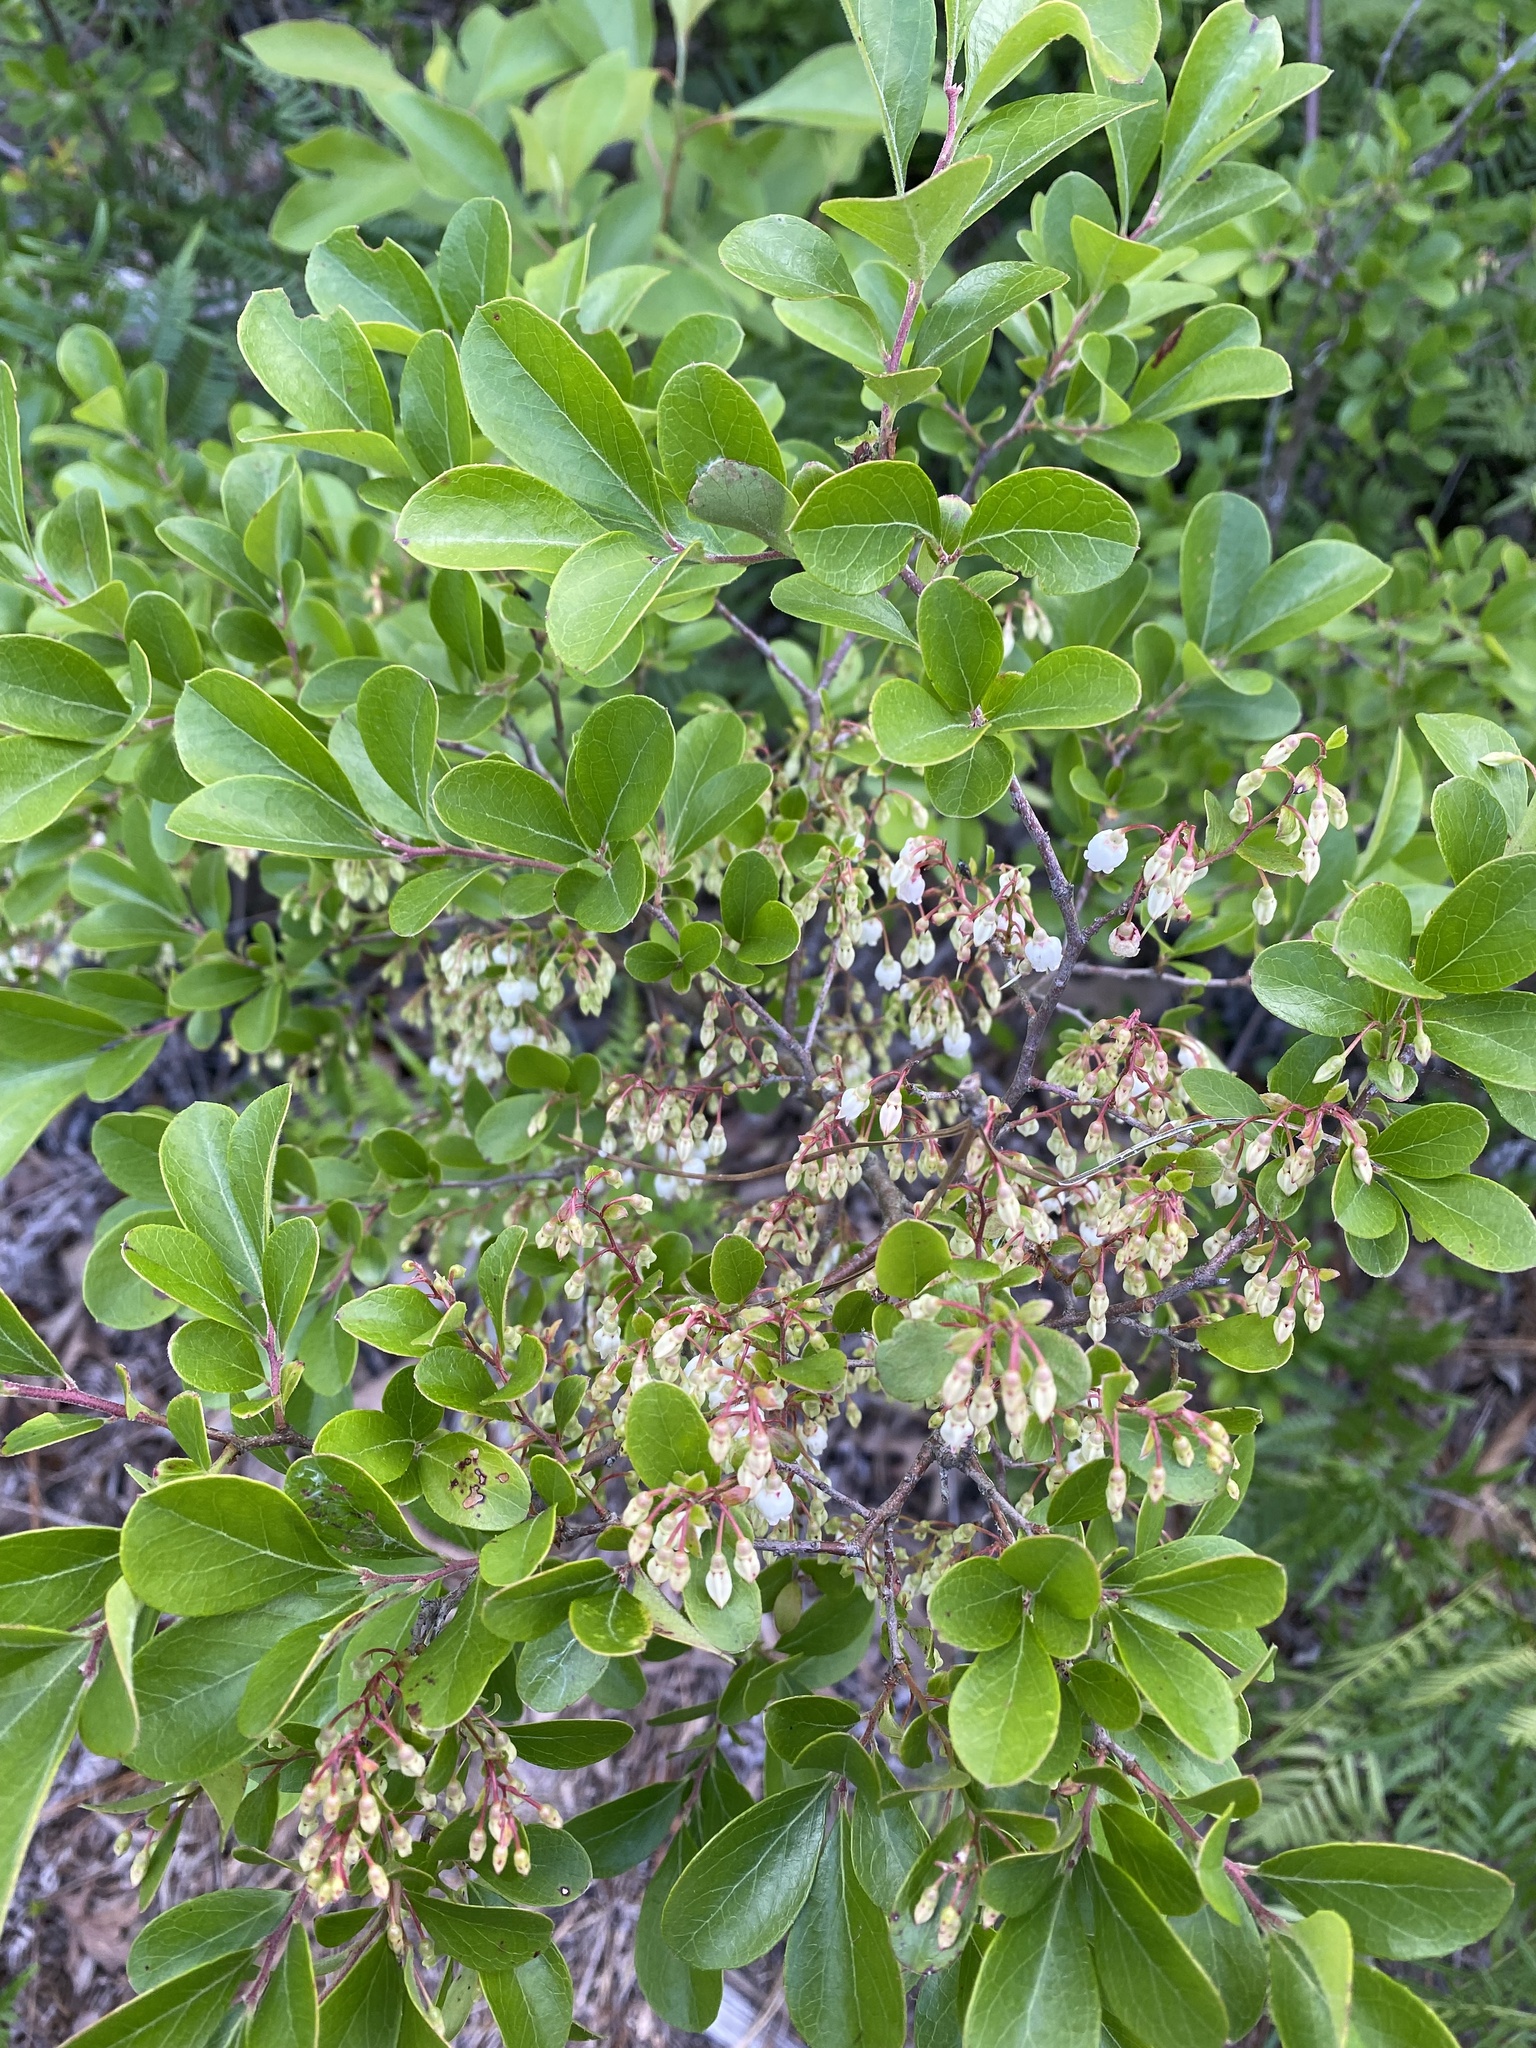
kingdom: Plantae
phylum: Tracheophyta
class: Magnoliopsida
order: Ericales
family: Ericaceae
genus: Vaccinium
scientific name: Vaccinium arboreum
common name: Farkleberry
